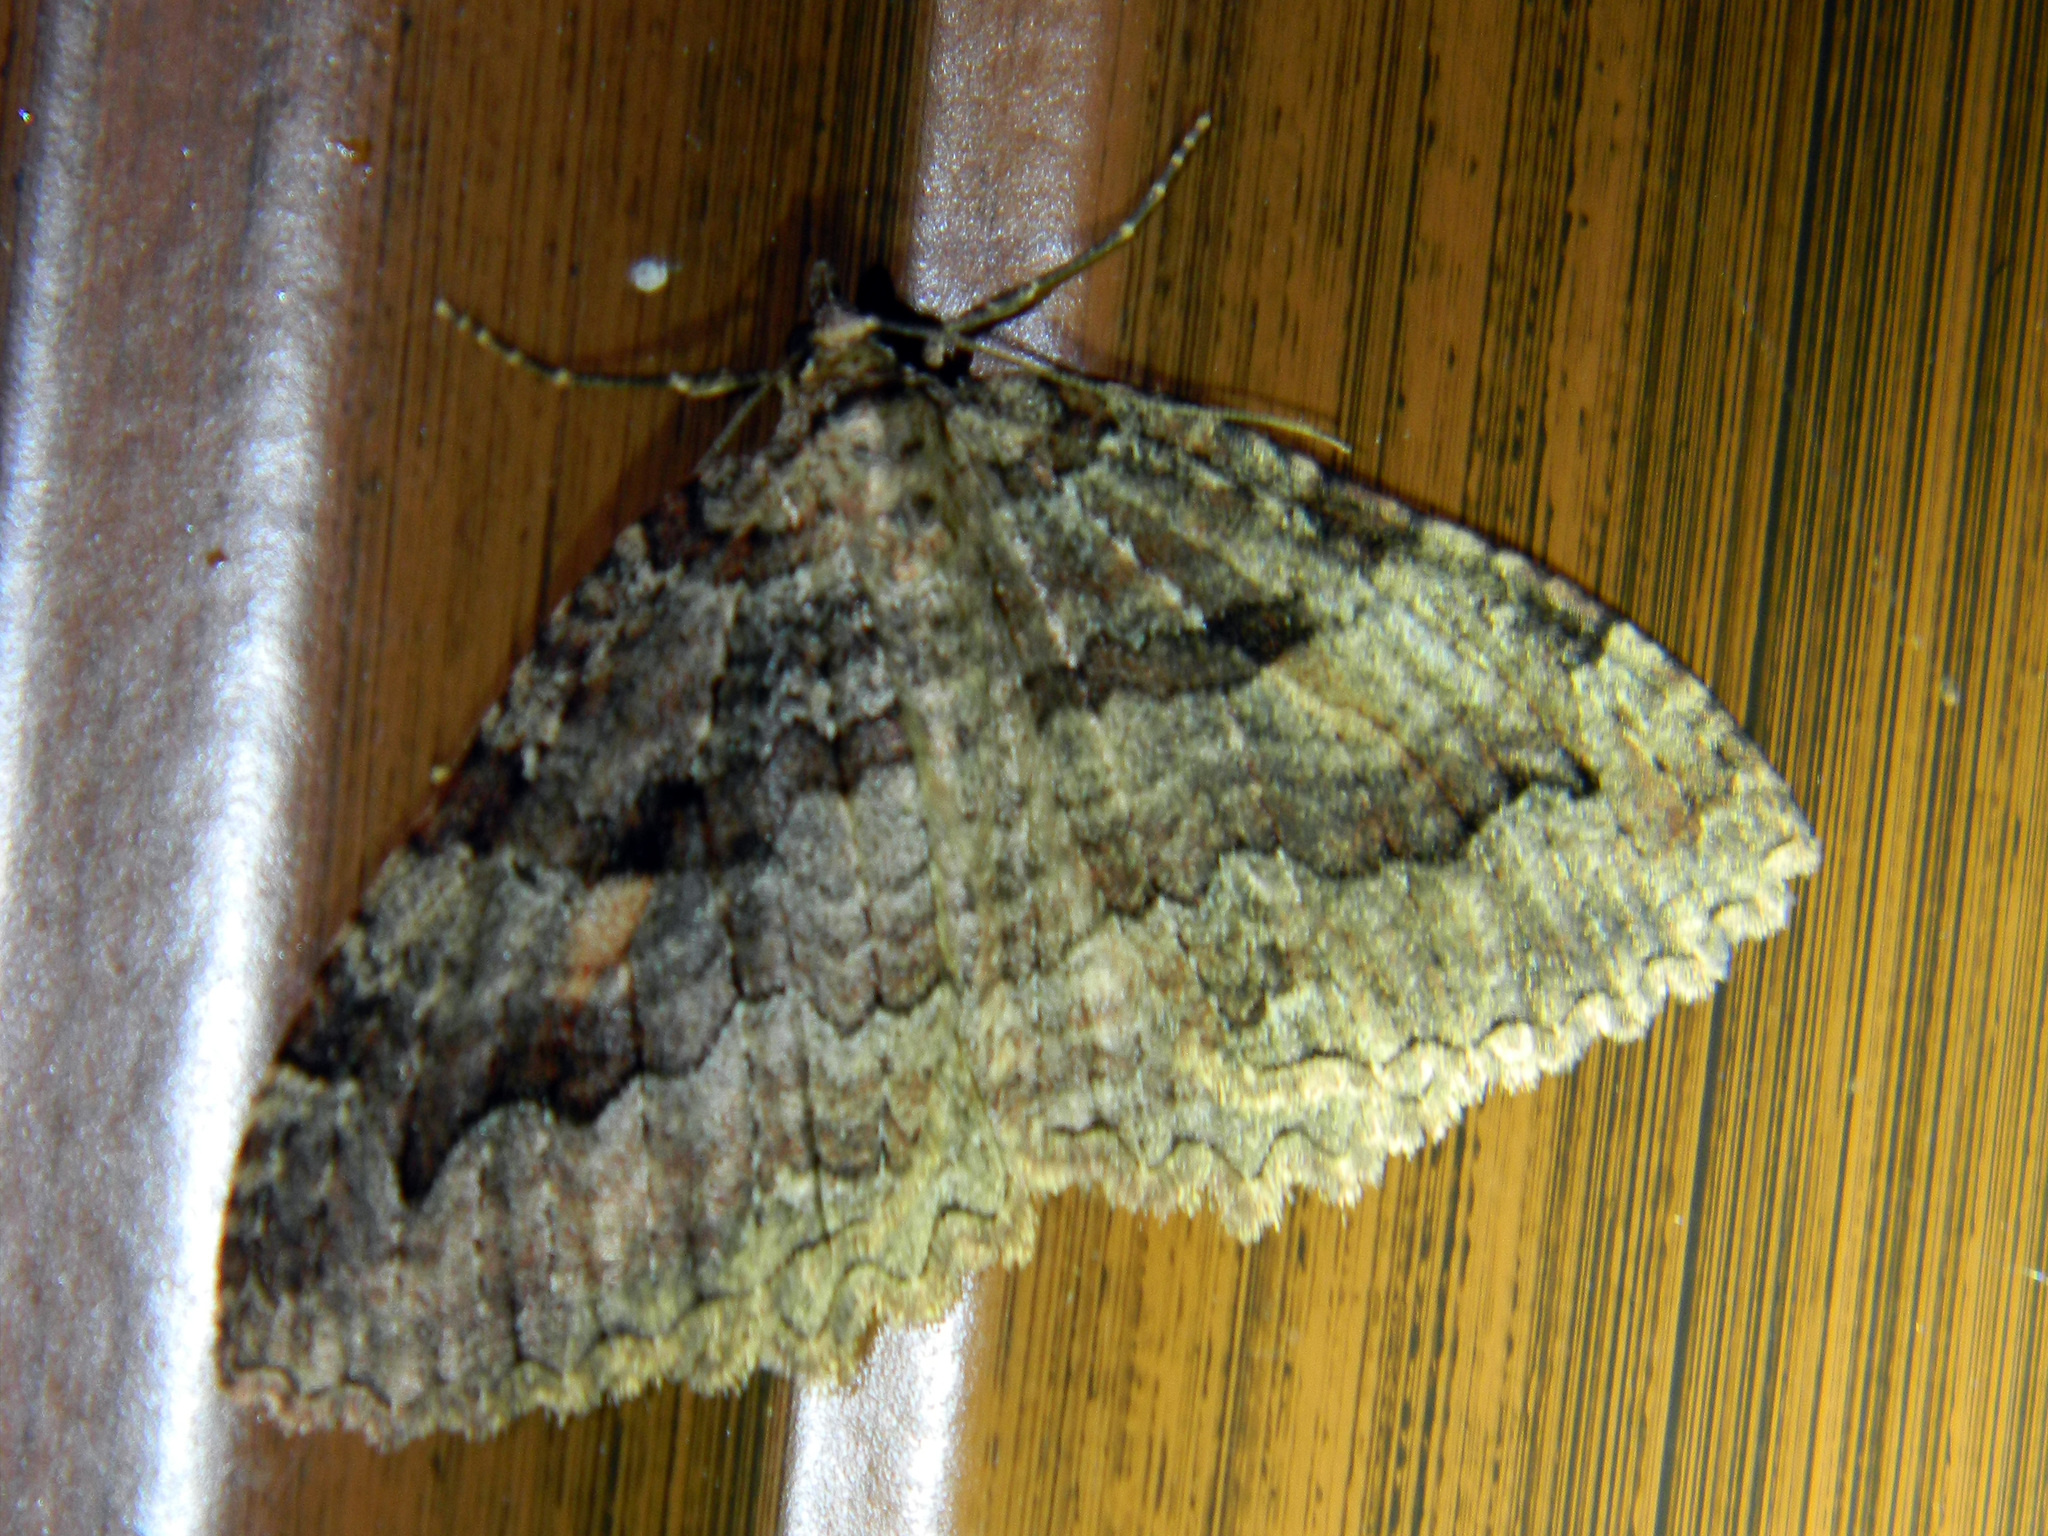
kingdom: Animalia
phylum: Arthropoda
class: Insecta
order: Lepidoptera
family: Geometridae
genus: Triphosa
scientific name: Triphosa haesitata
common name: Tissue moth
